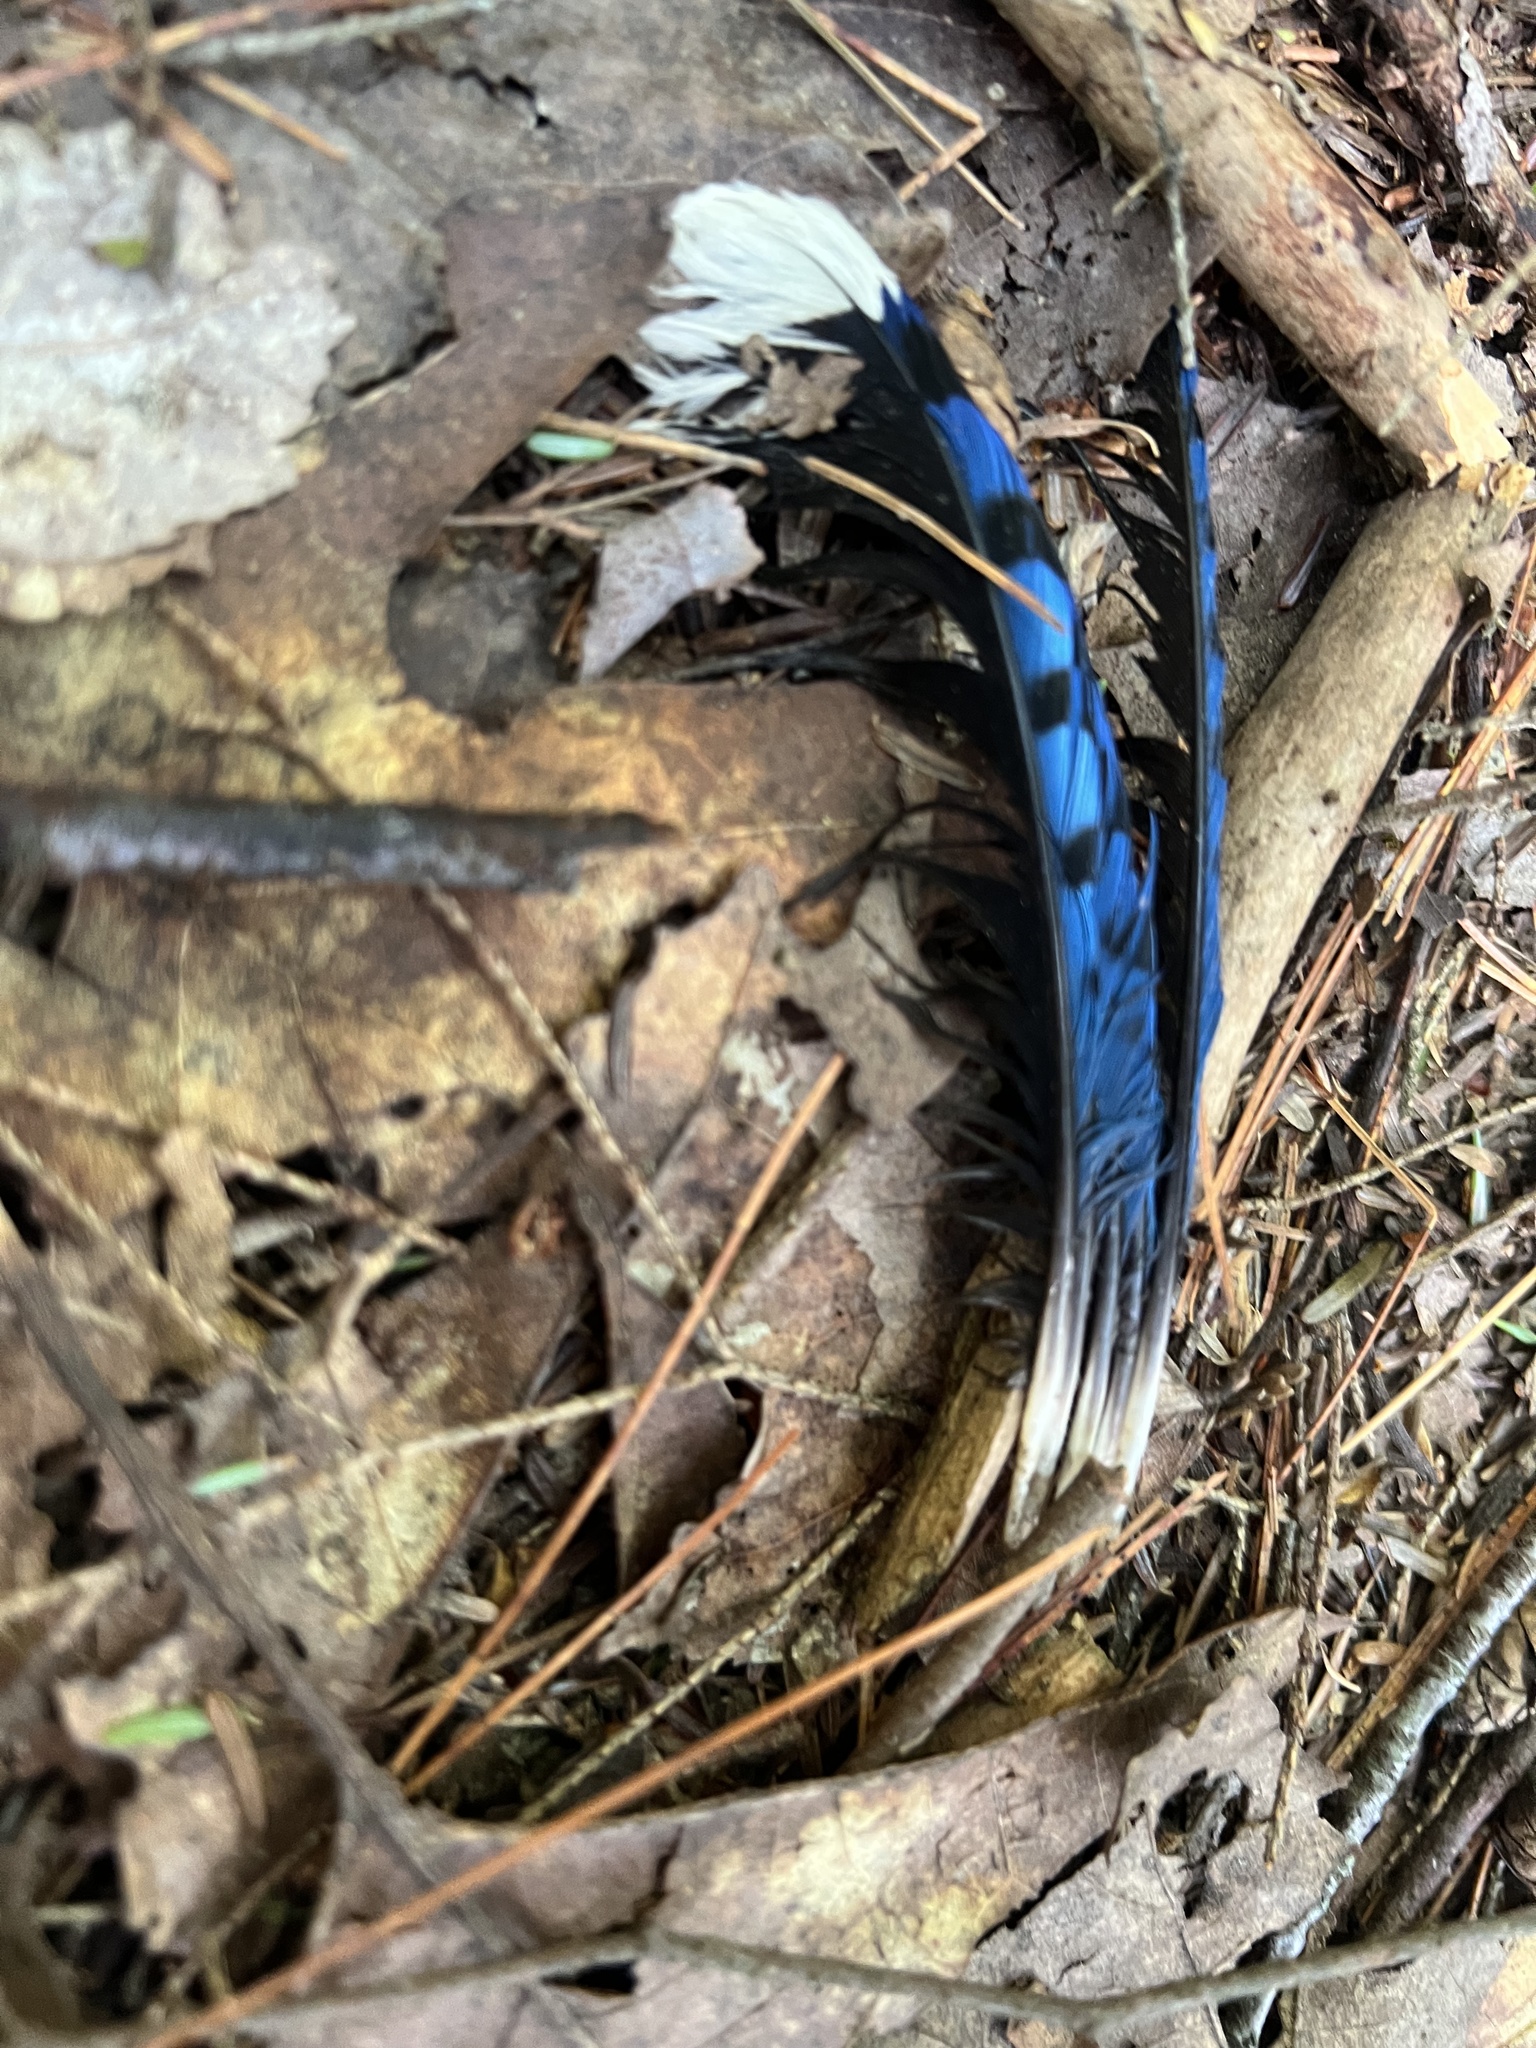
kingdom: Animalia
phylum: Chordata
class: Aves
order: Passeriformes
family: Corvidae
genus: Cyanocitta
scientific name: Cyanocitta cristata
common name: Blue jay
